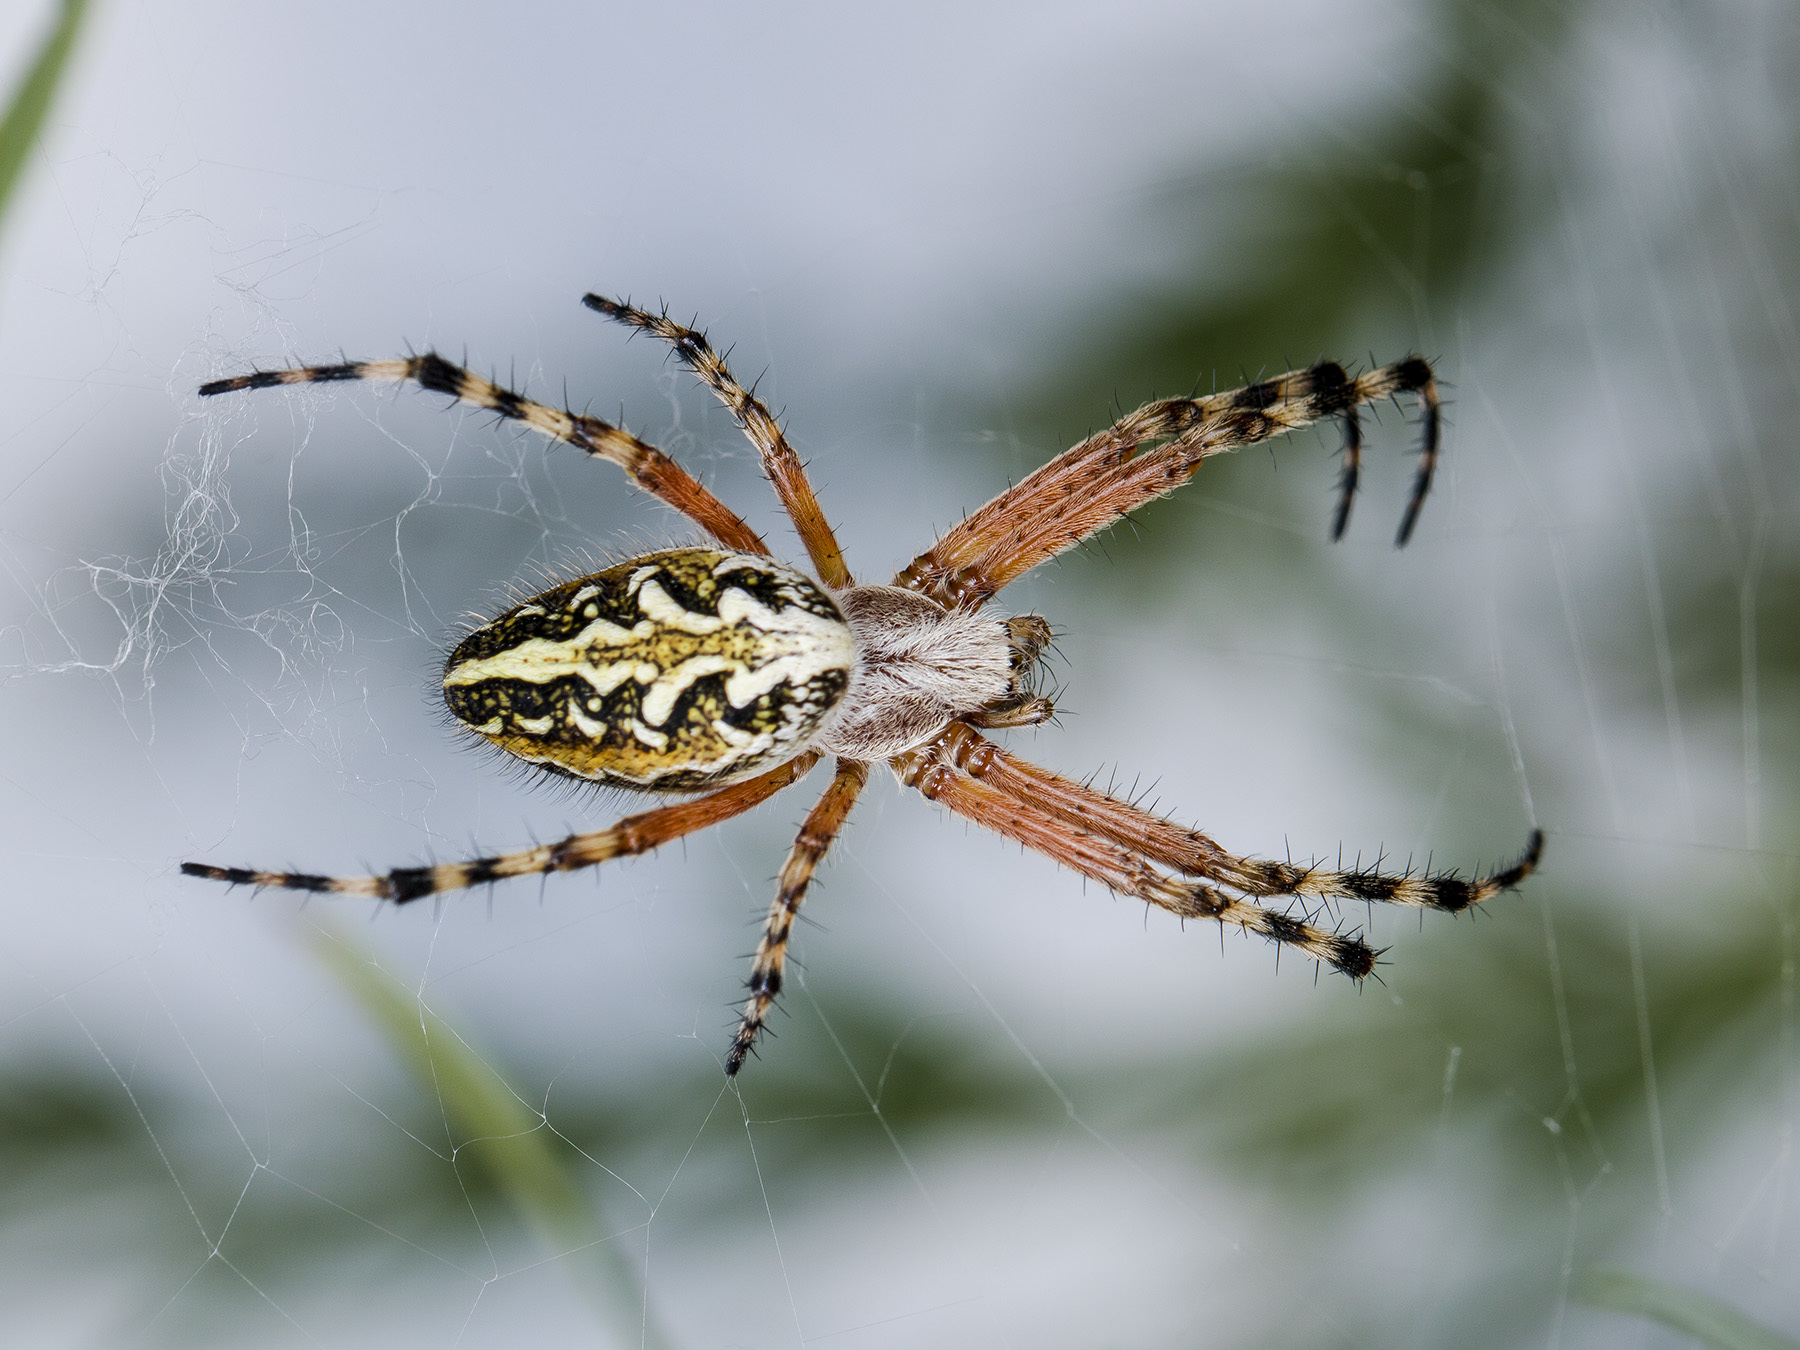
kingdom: Animalia
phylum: Arthropoda
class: Arachnida
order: Araneae
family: Araneidae
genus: Aculepeira
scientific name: Aculepeira packardi
